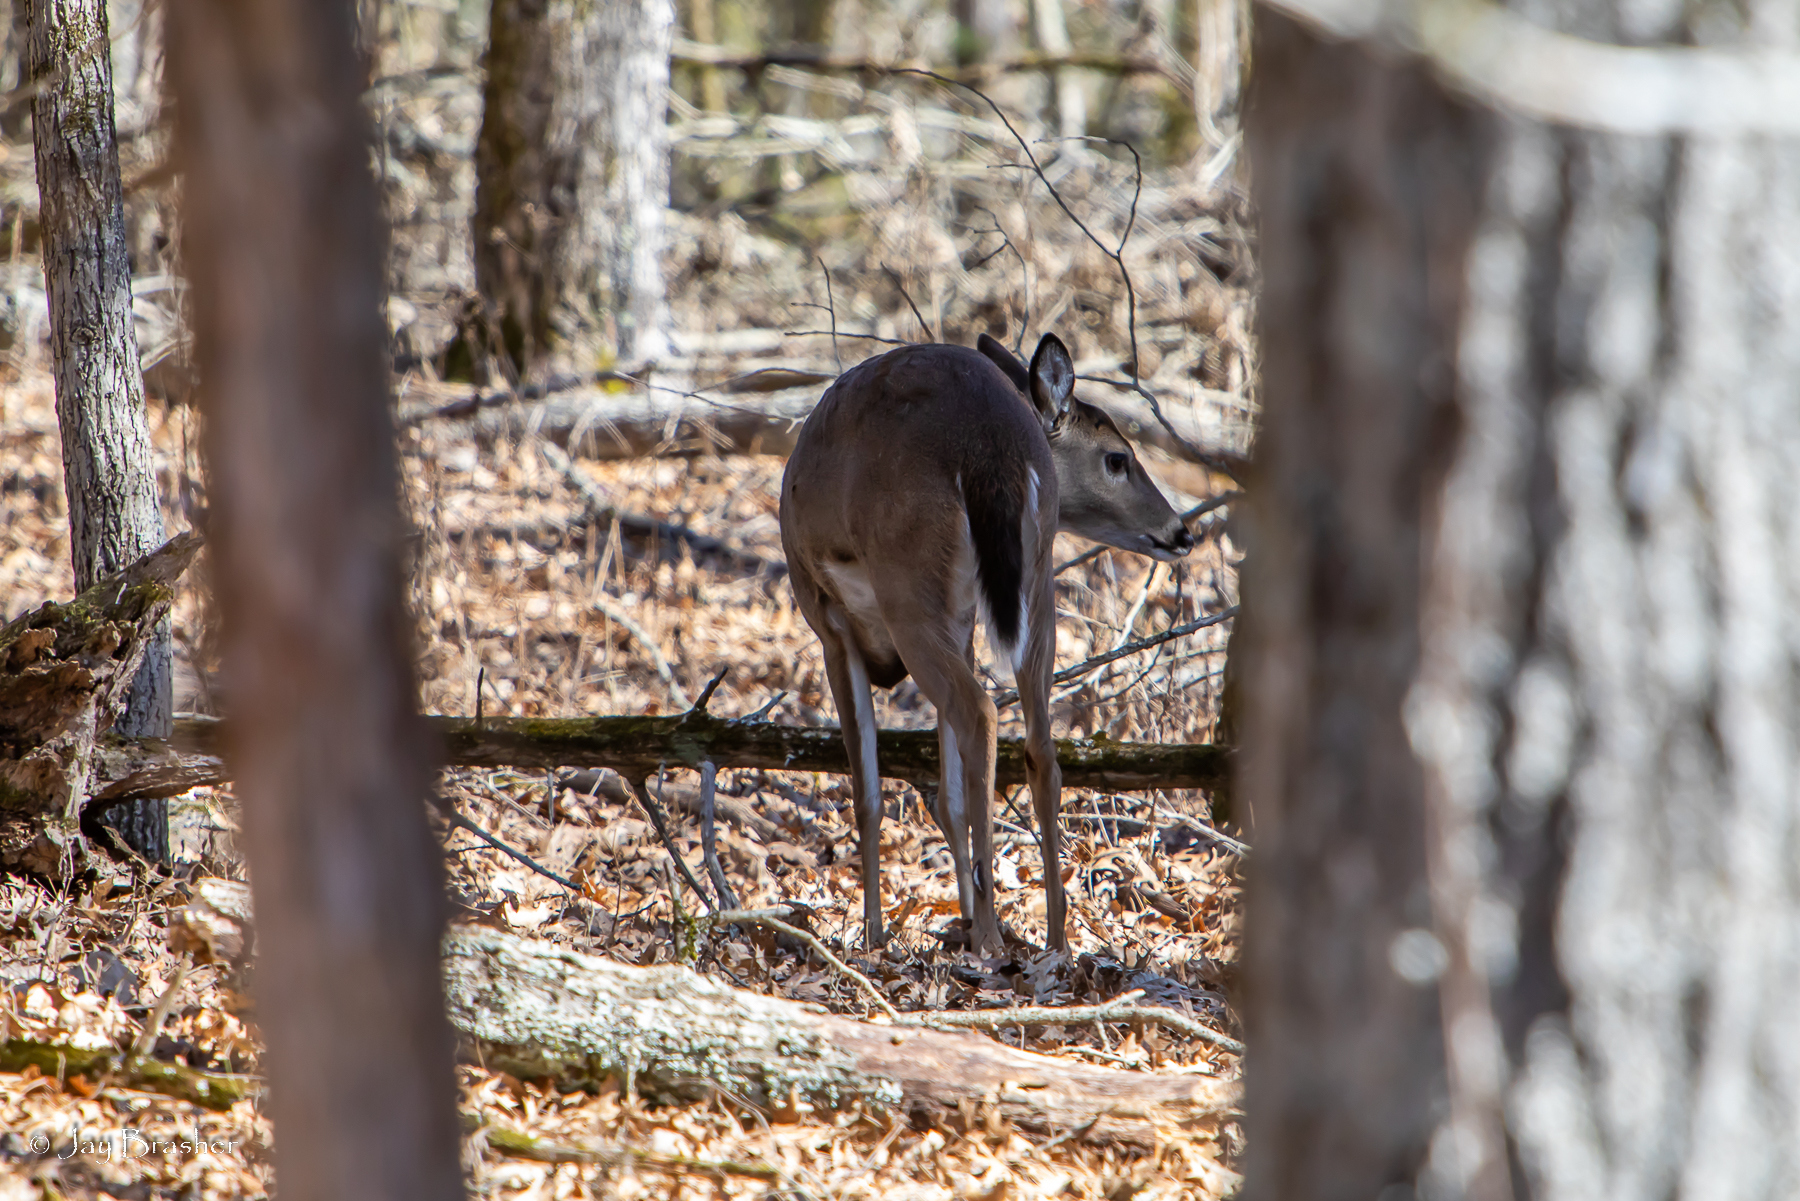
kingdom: Animalia
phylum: Chordata
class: Mammalia
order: Artiodactyla
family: Cervidae
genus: Odocoileus
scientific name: Odocoileus virginianus
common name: White-tailed deer
